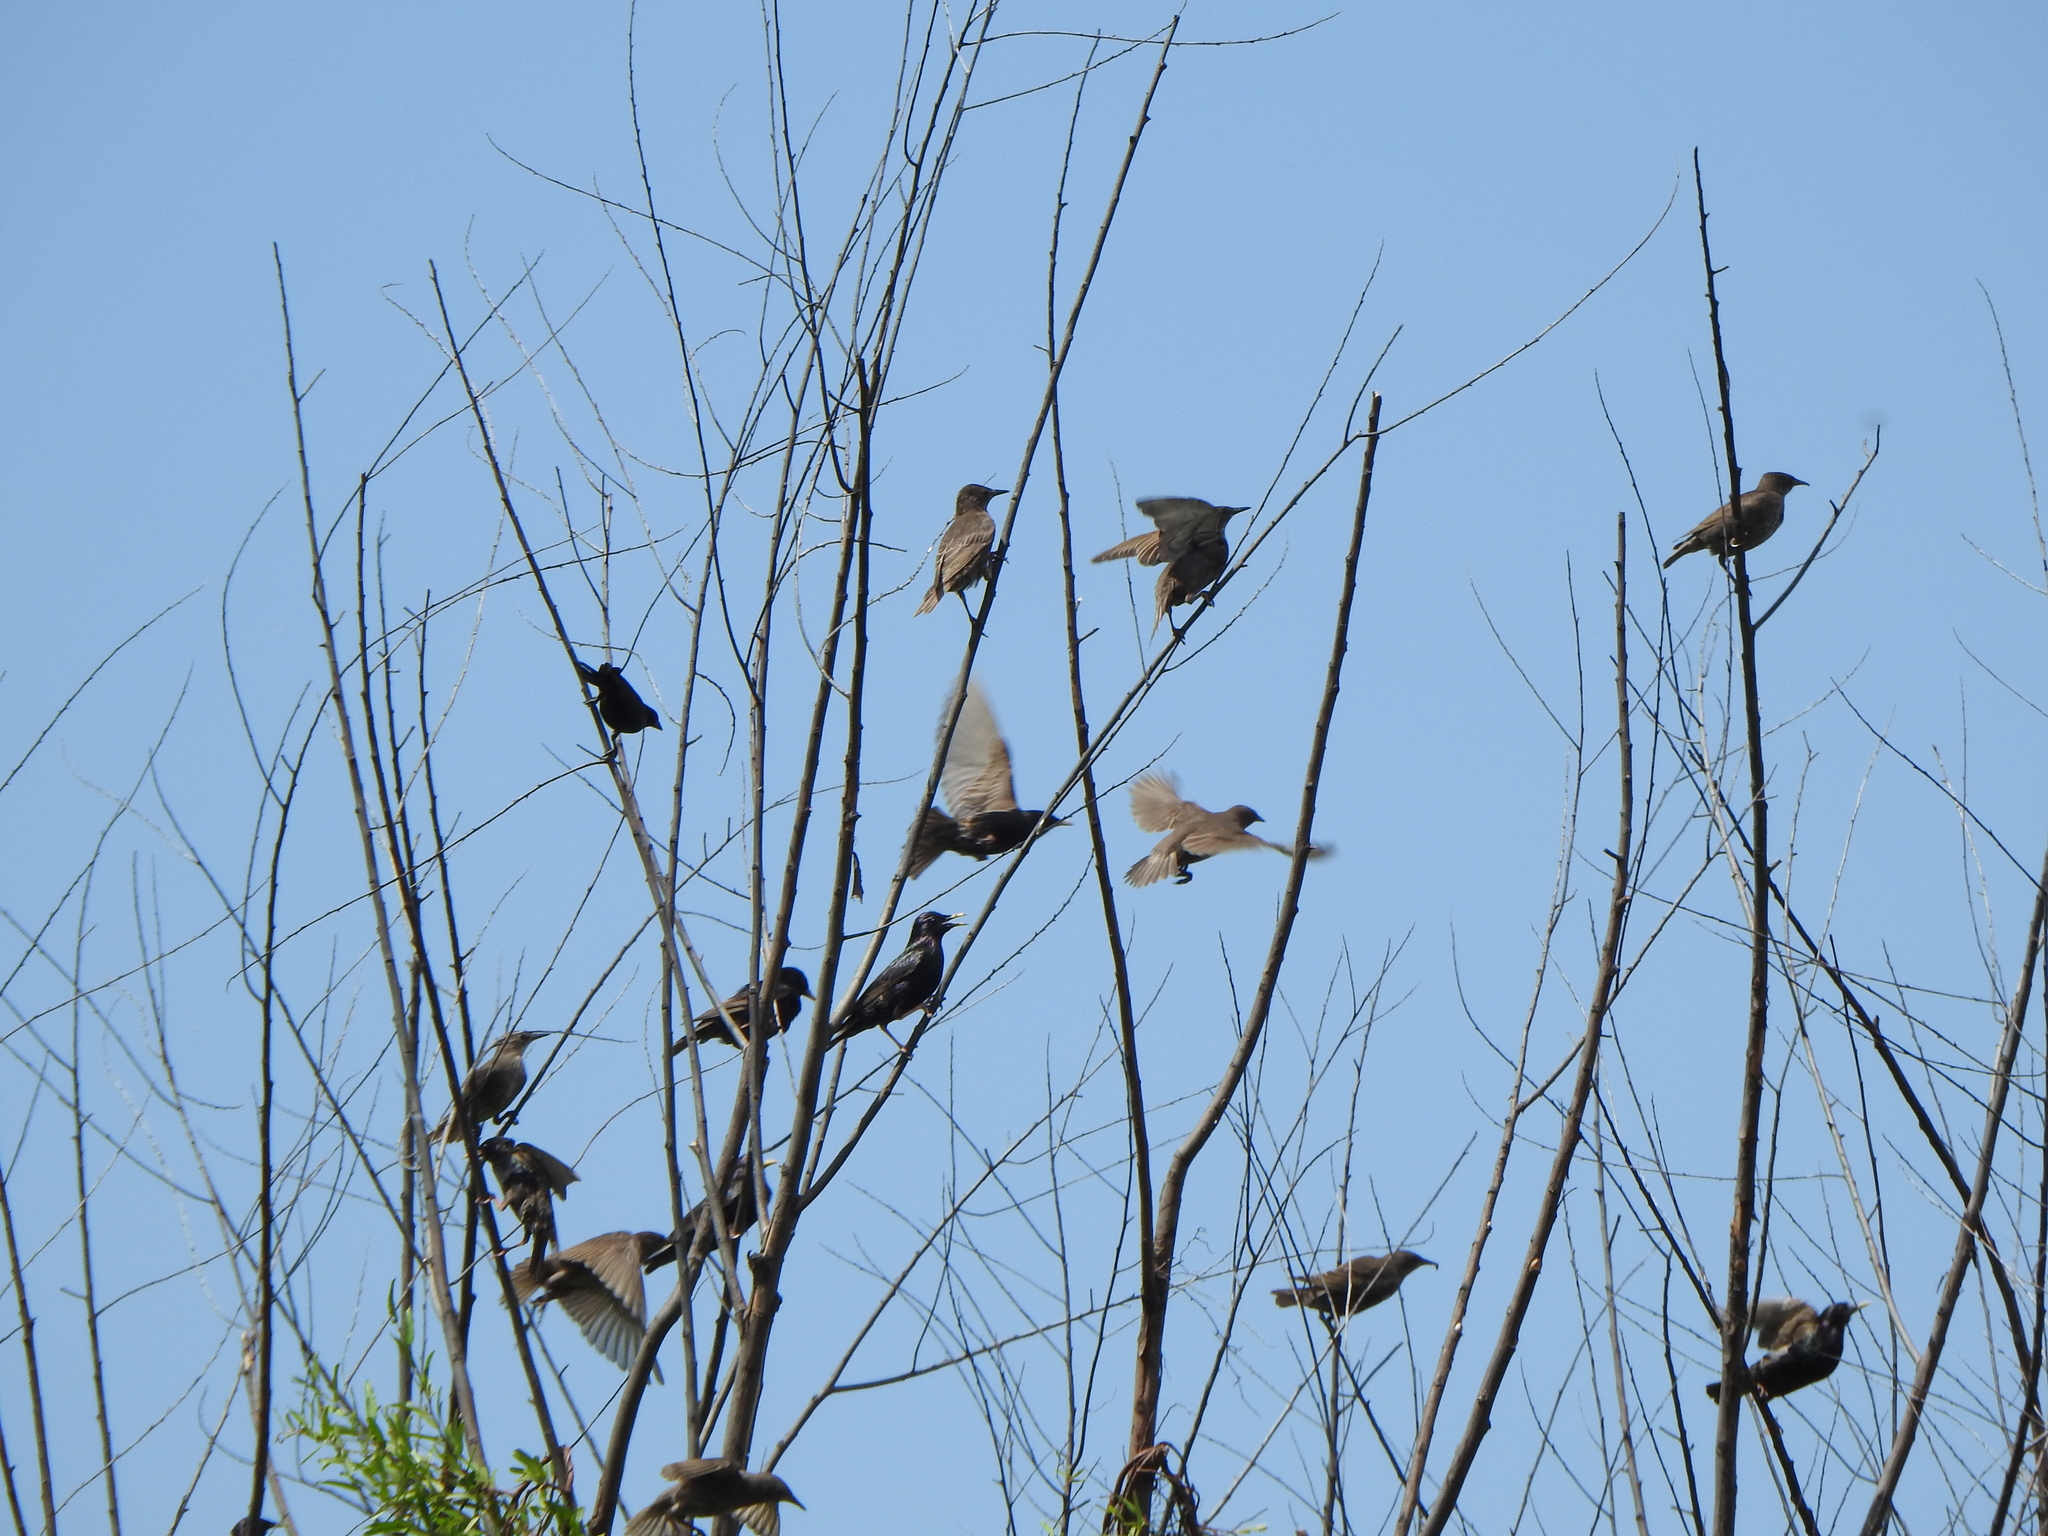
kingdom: Animalia
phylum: Chordata
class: Aves
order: Passeriformes
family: Sturnidae
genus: Sturnus
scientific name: Sturnus vulgaris
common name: Common starling
